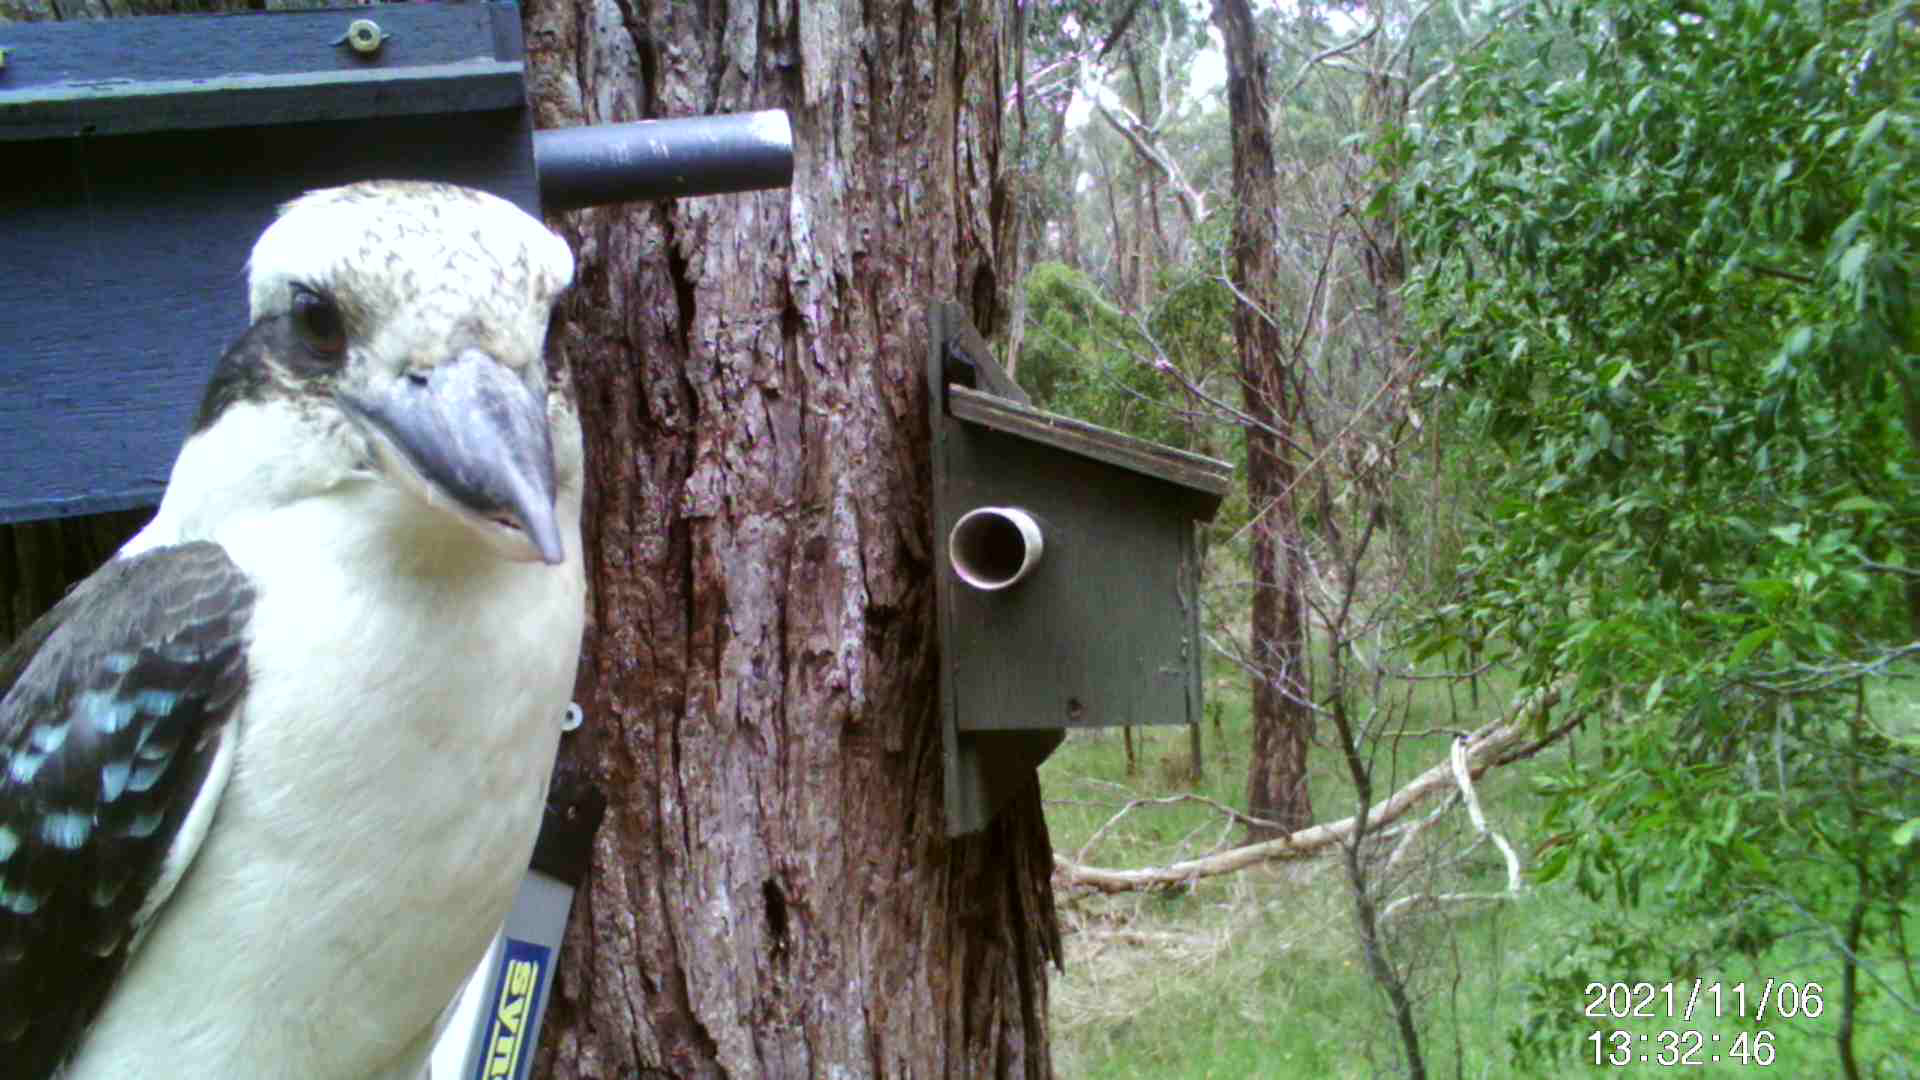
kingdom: Animalia
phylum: Chordata
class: Aves
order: Coraciiformes
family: Alcedinidae
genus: Dacelo
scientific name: Dacelo novaeguineae
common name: Laughing kookaburra
